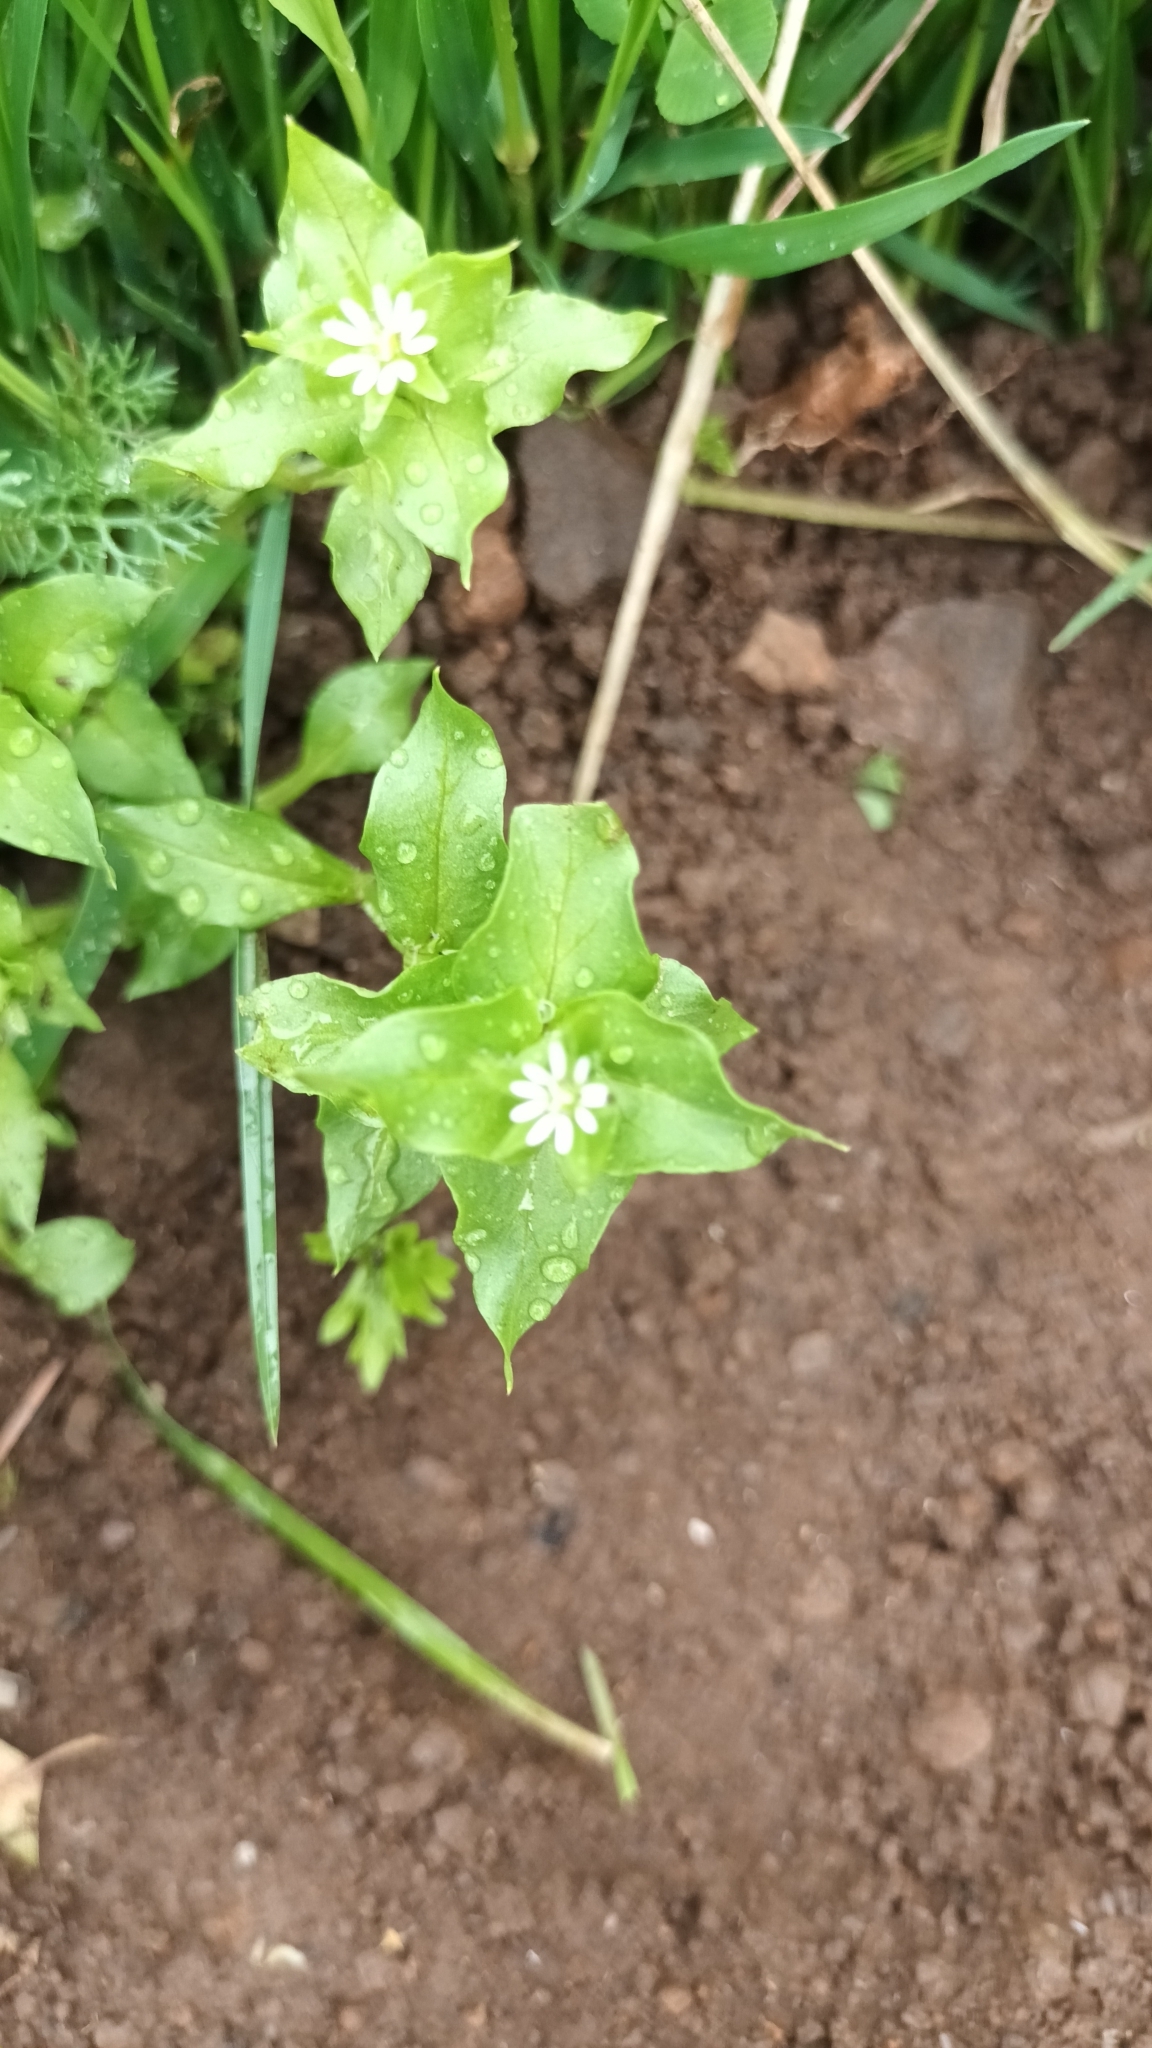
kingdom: Plantae
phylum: Tracheophyta
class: Magnoliopsida
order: Caryophyllales
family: Caryophyllaceae
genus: Stellaria
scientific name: Stellaria media
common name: Common chickweed
